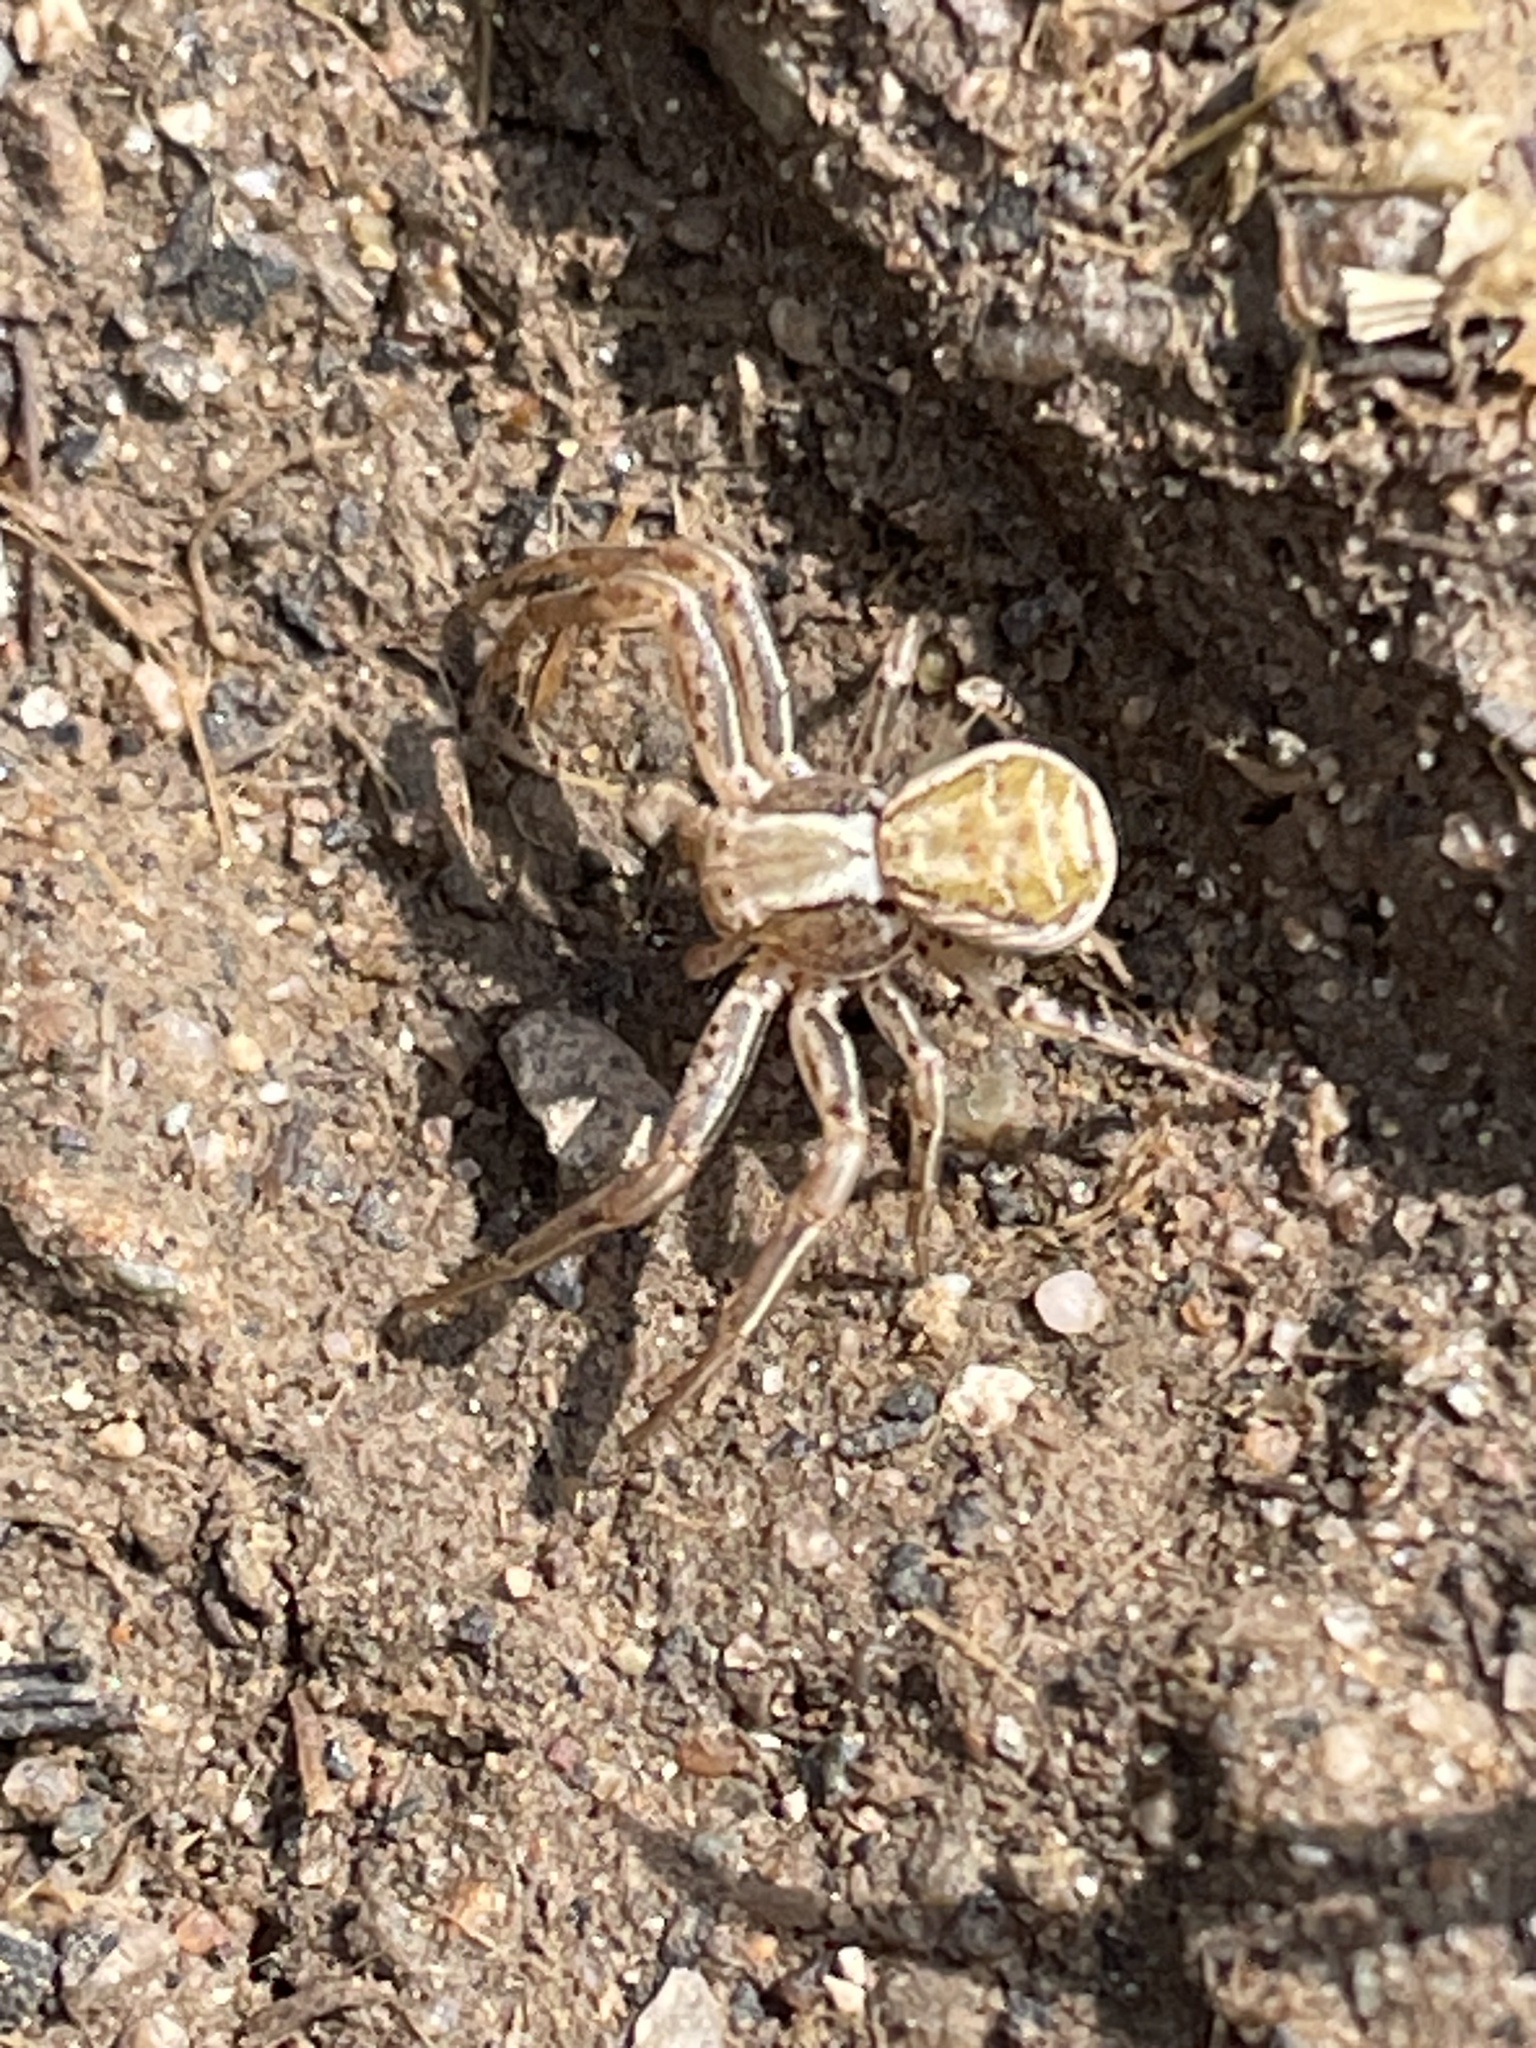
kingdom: Animalia
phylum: Arthropoda
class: Arachnida
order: Araneae
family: Thomisidae
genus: Xysticus
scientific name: Xysticus
